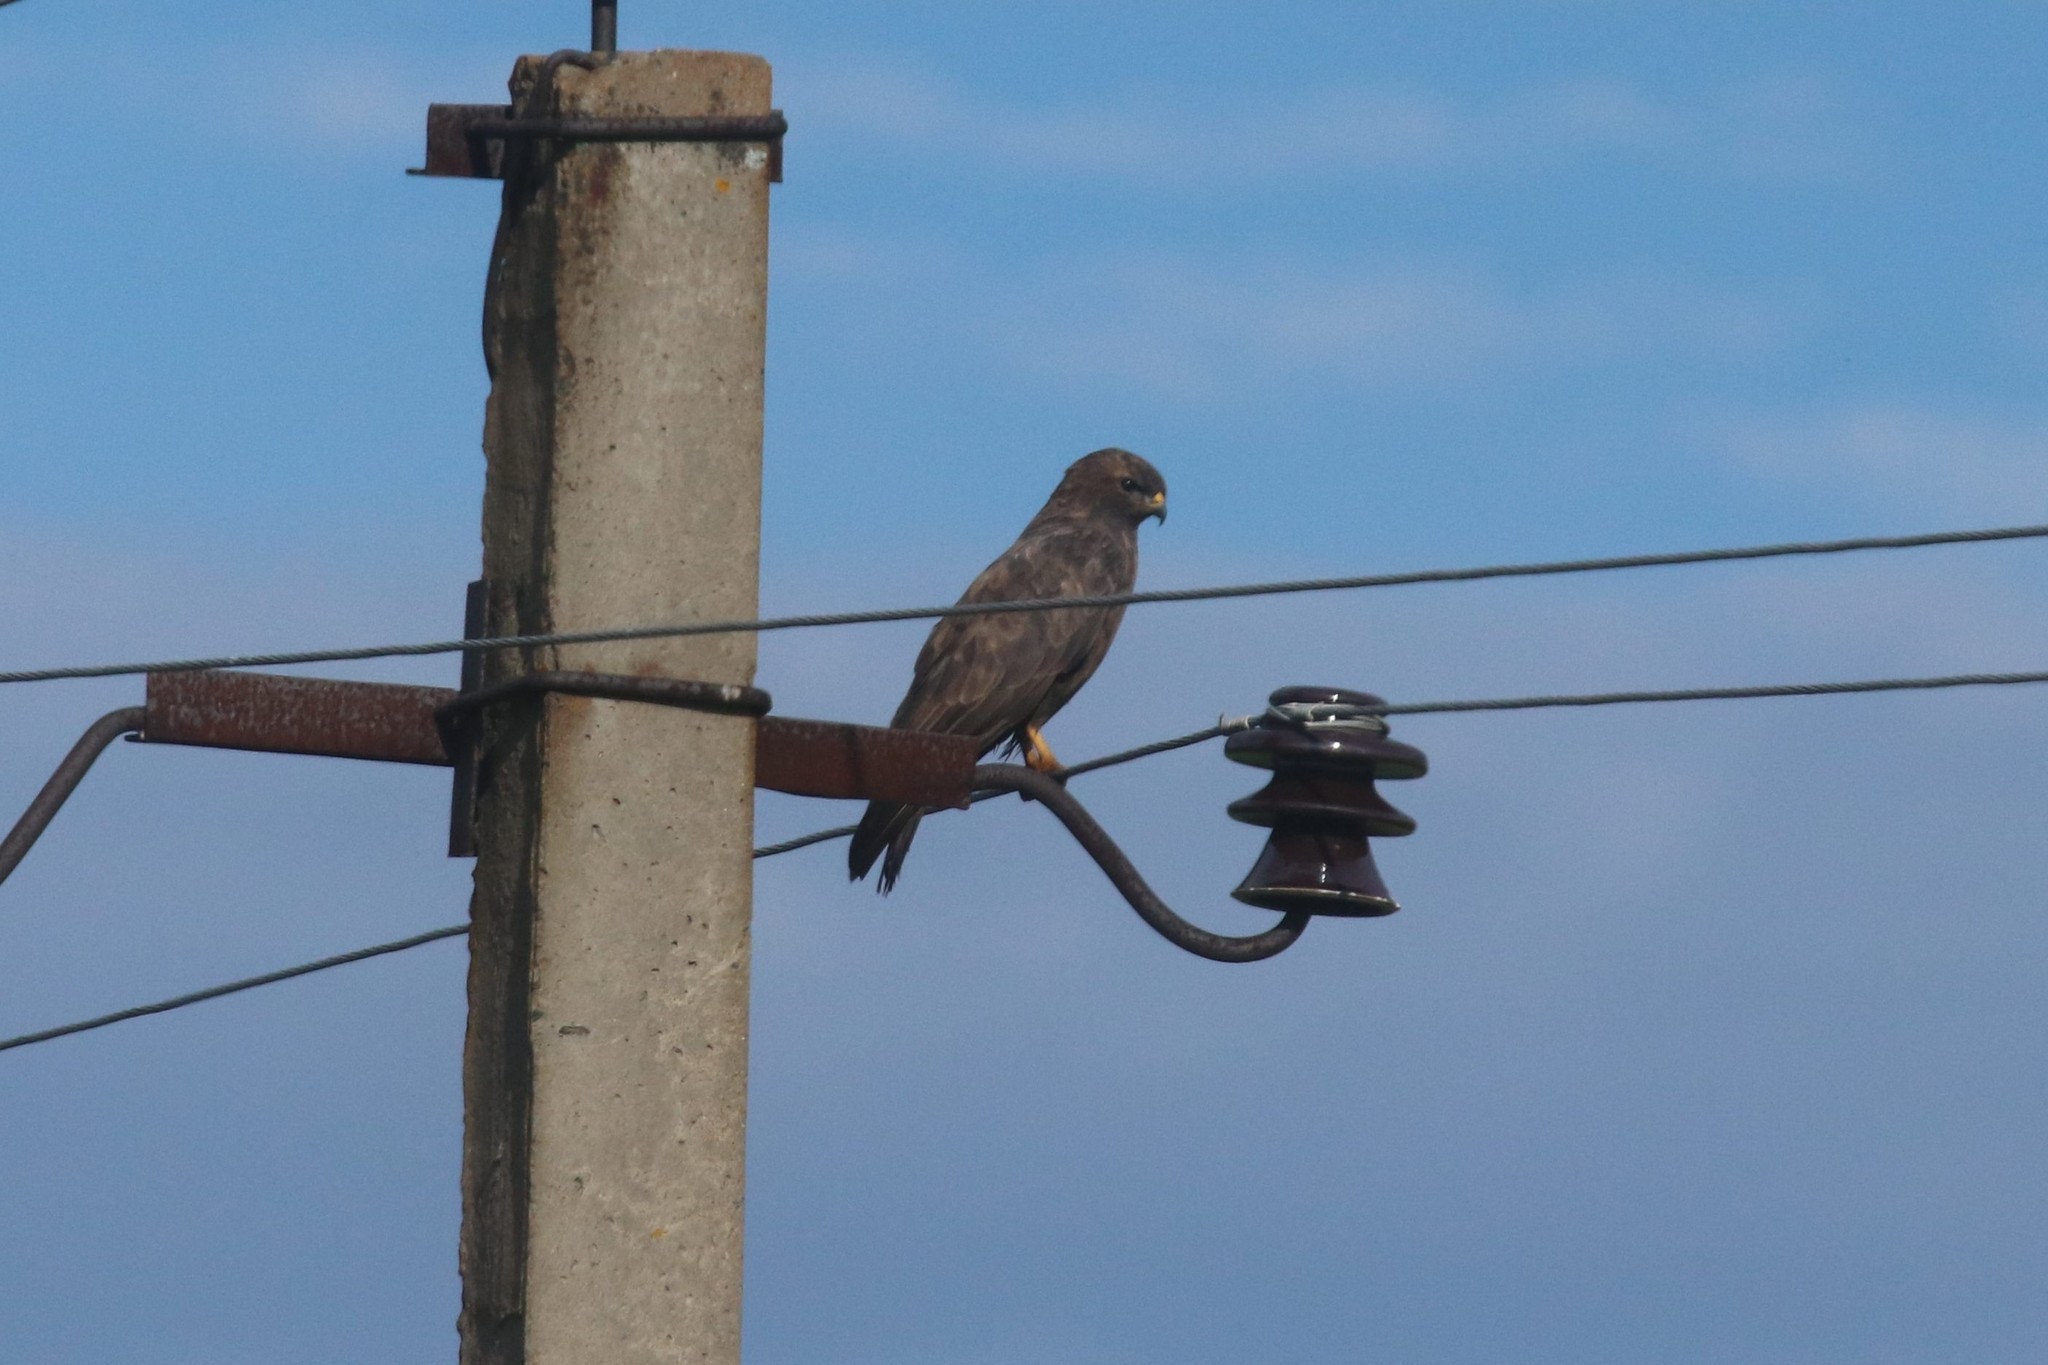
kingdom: Animalia
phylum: Chordata
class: Aves
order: Accipitriformes
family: Accipitridae
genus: Buteo
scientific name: Buteo buteo
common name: Common buzzard
